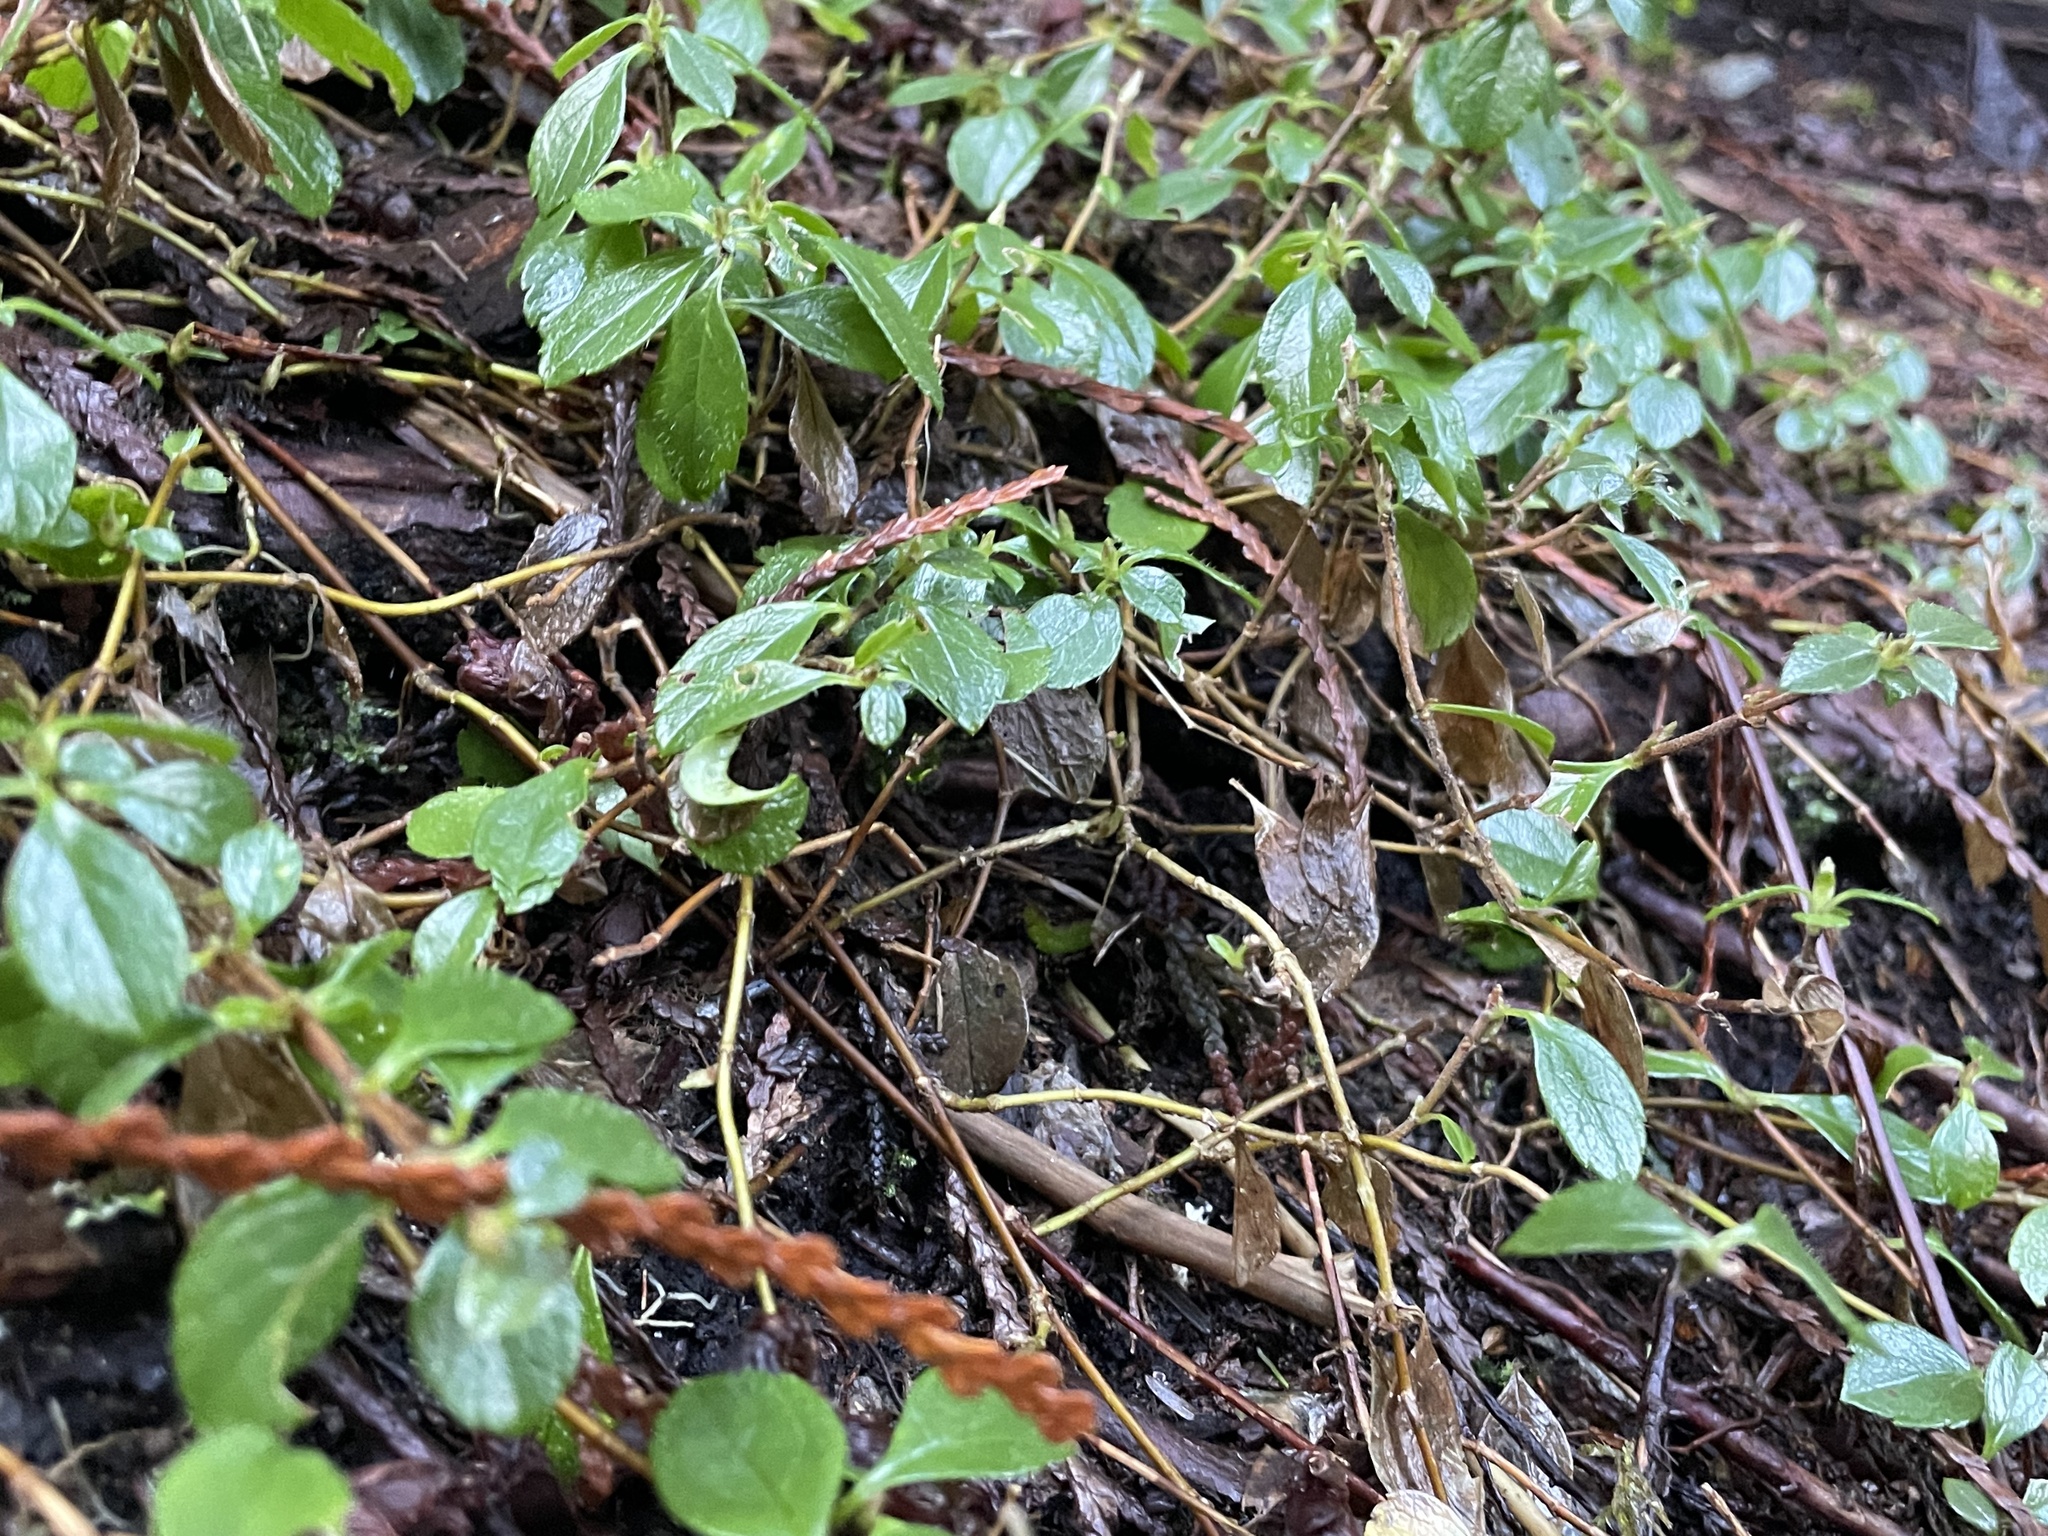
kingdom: Plantae
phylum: Tracheophyta
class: Magnoliopsida
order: Dipsacales
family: Caprifoliaceae
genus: Linnaea
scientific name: Linnaea borealis
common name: Twinflower
